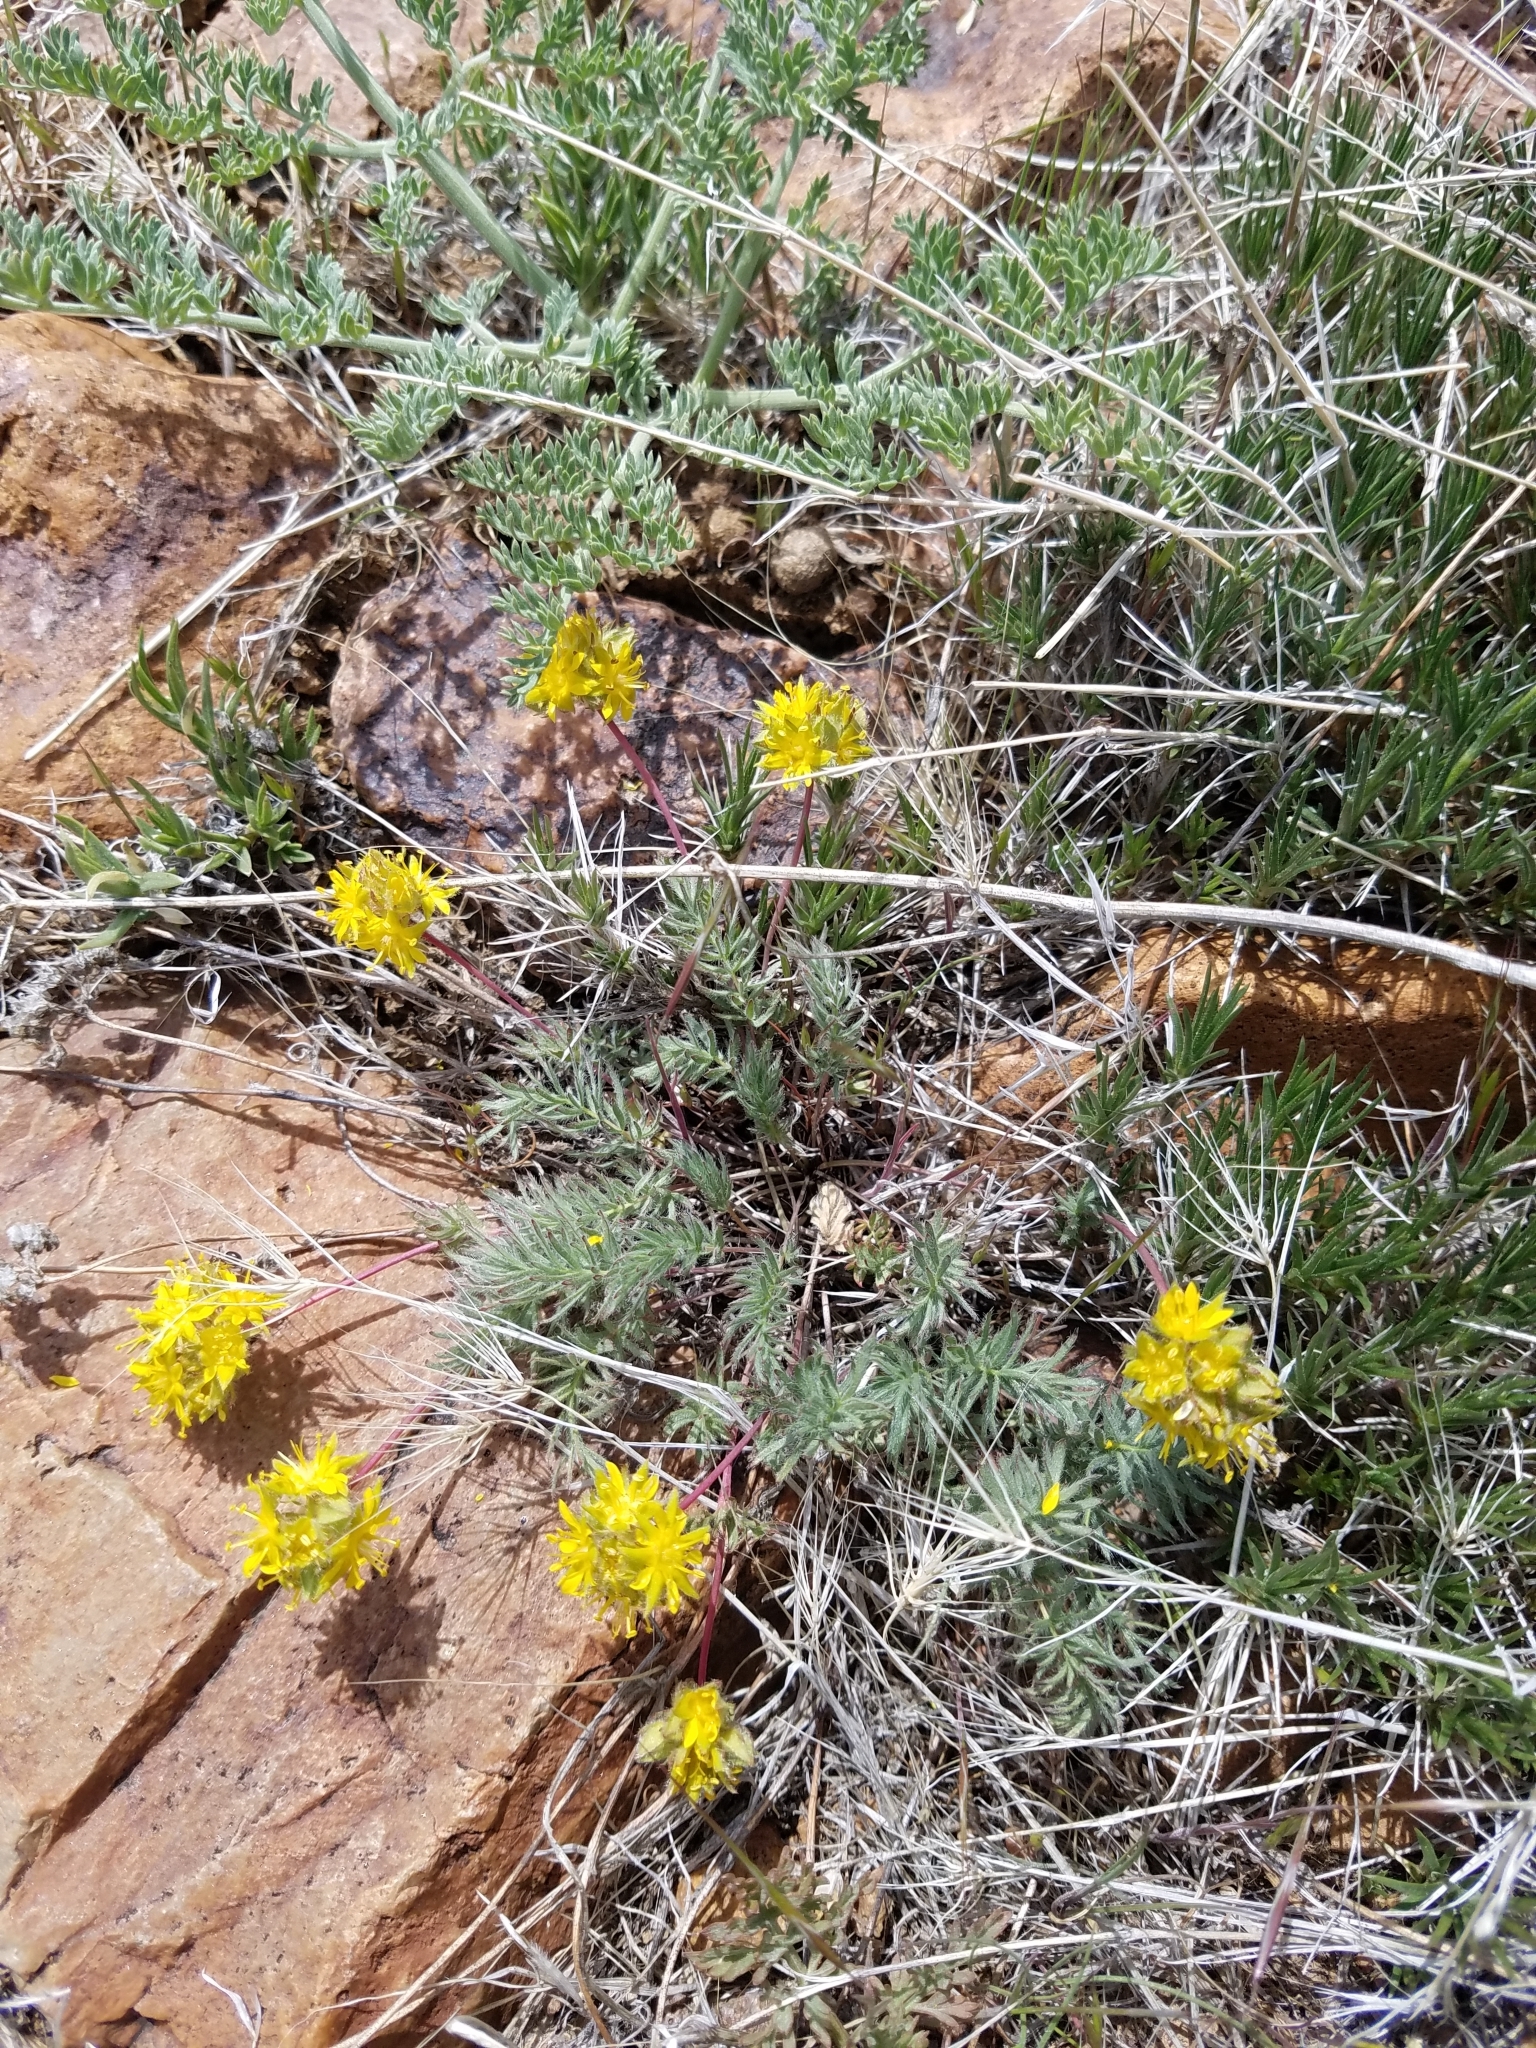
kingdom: Plantae
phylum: Tracheophyta
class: Magnoliopsida
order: Rosales
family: Rosaceae
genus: Potentilla
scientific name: Potentilla webberi
